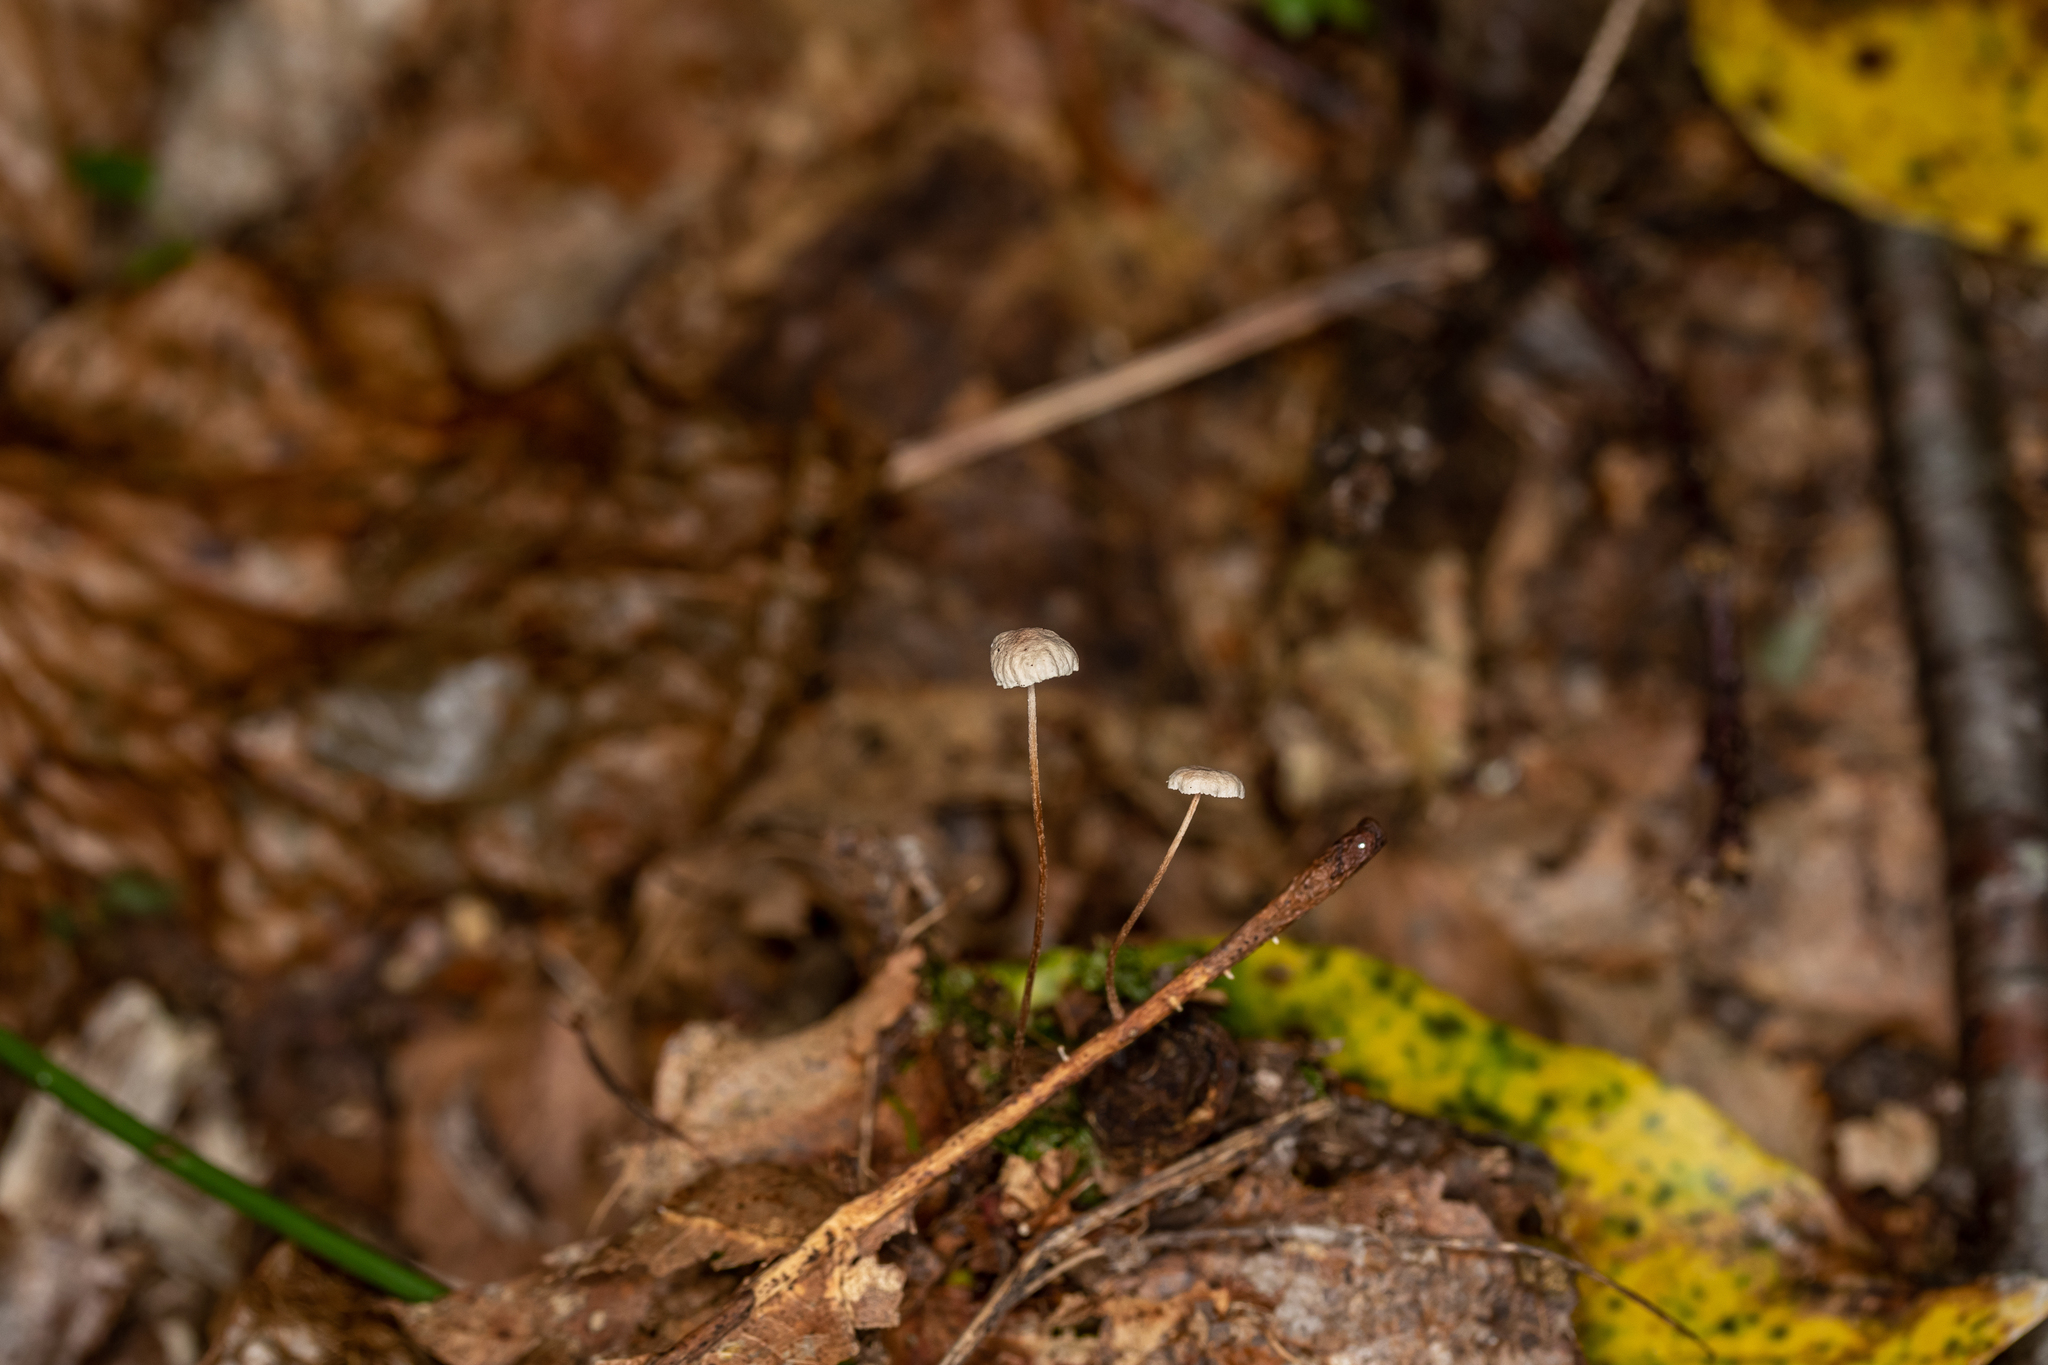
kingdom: Fungi
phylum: Basidiomycota
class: Agaricomycetes
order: Agaricales
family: Omphalotaceae
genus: Mycetinis
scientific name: Mycetinis opacus
